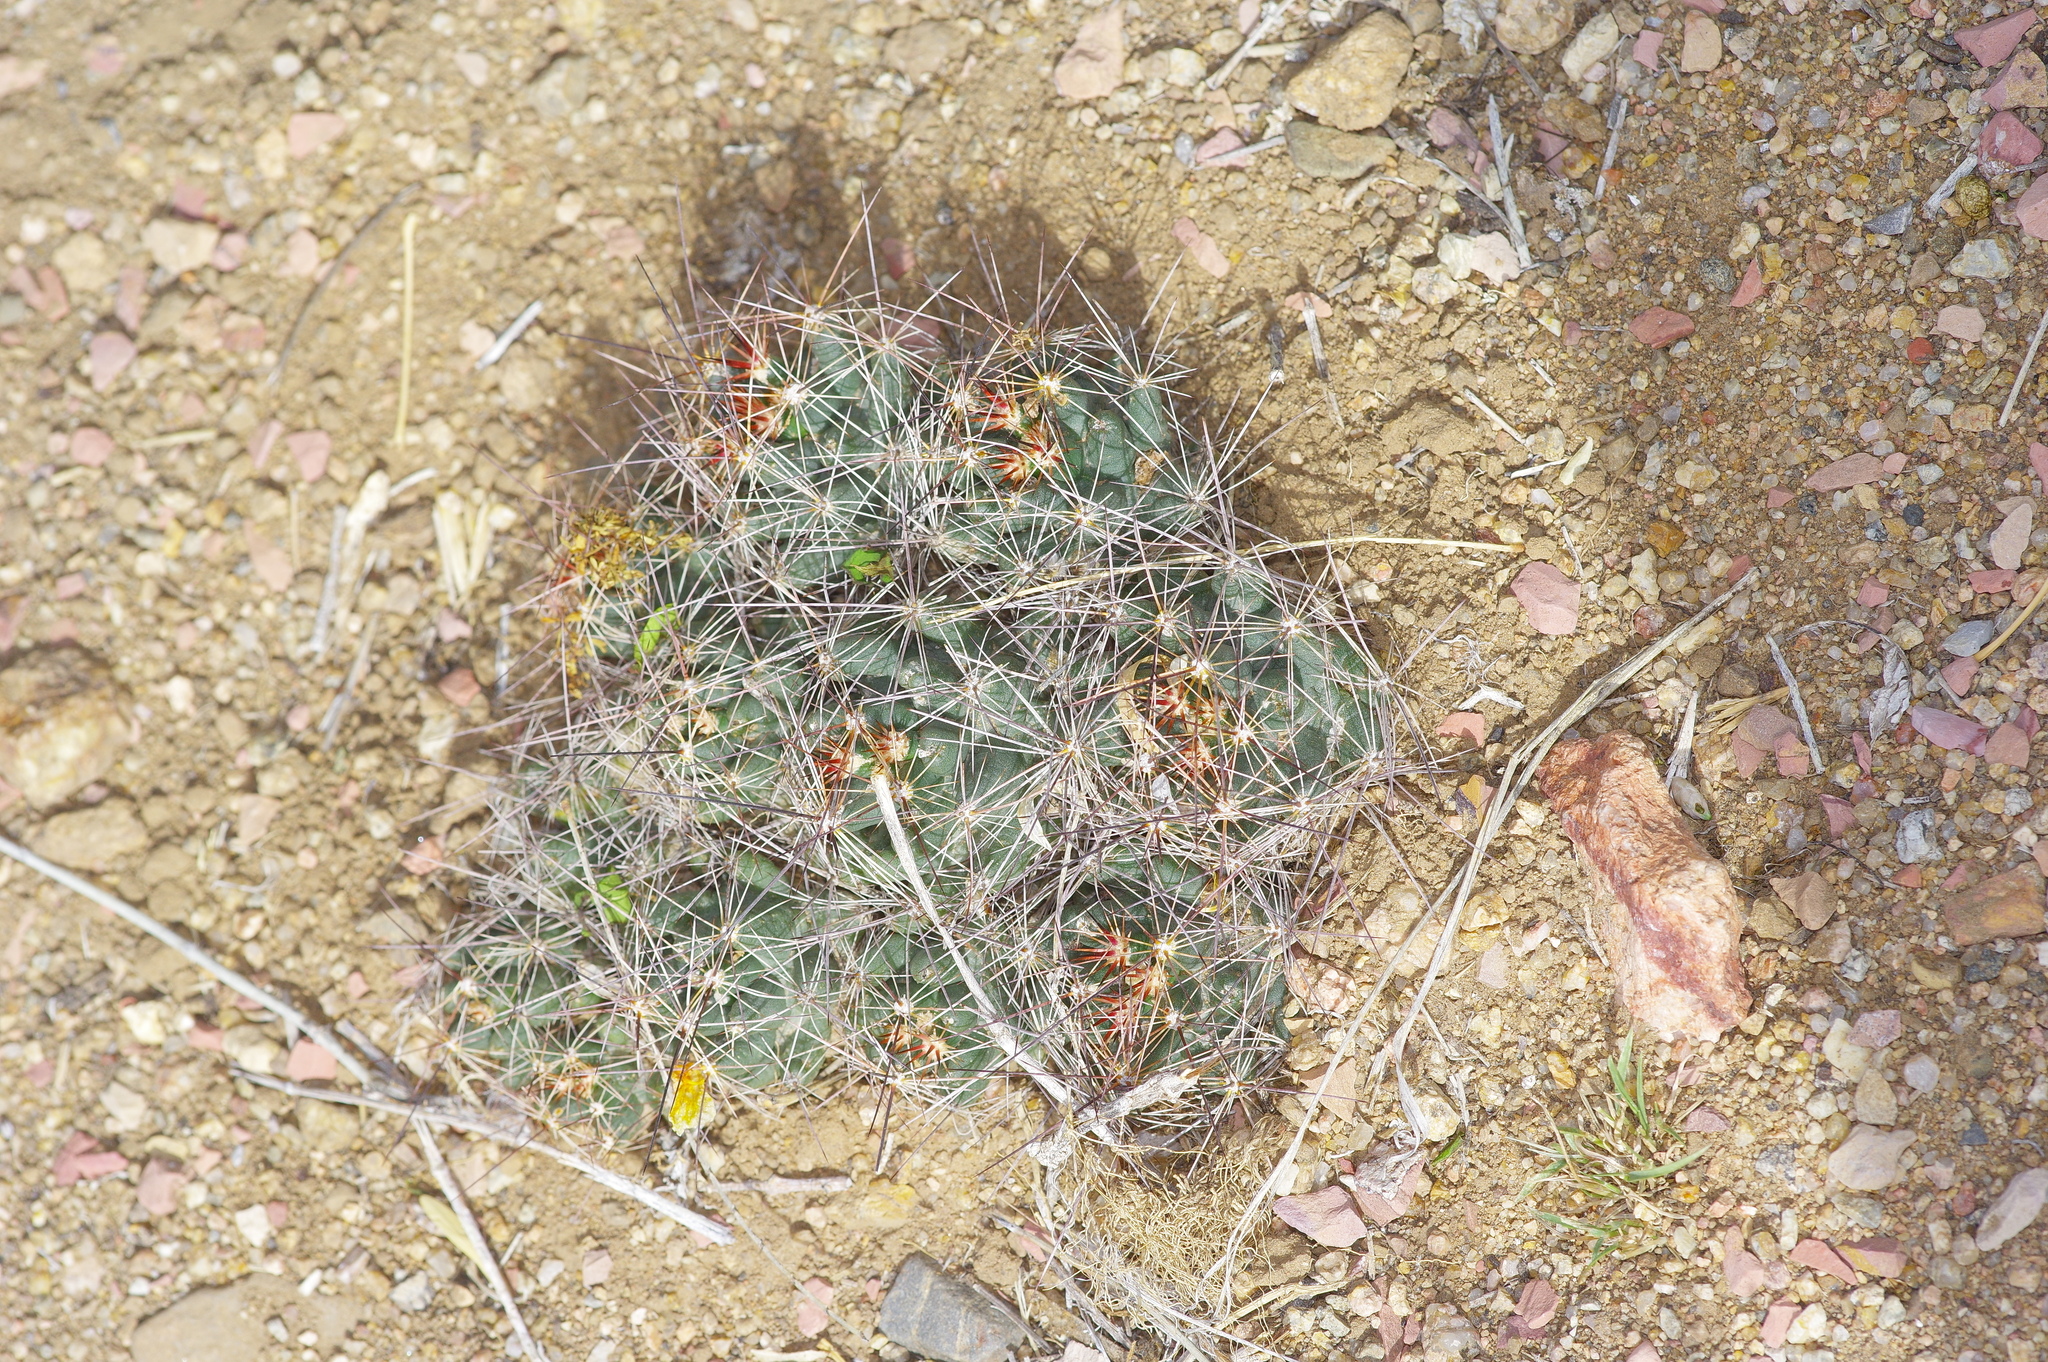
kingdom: Plantae
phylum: Tracheophyta
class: Magnoliopsida
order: Caryophyllales
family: Cactaceae
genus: Coryphantha
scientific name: Coryphantha macromeris
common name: Nipple beehive cactus
